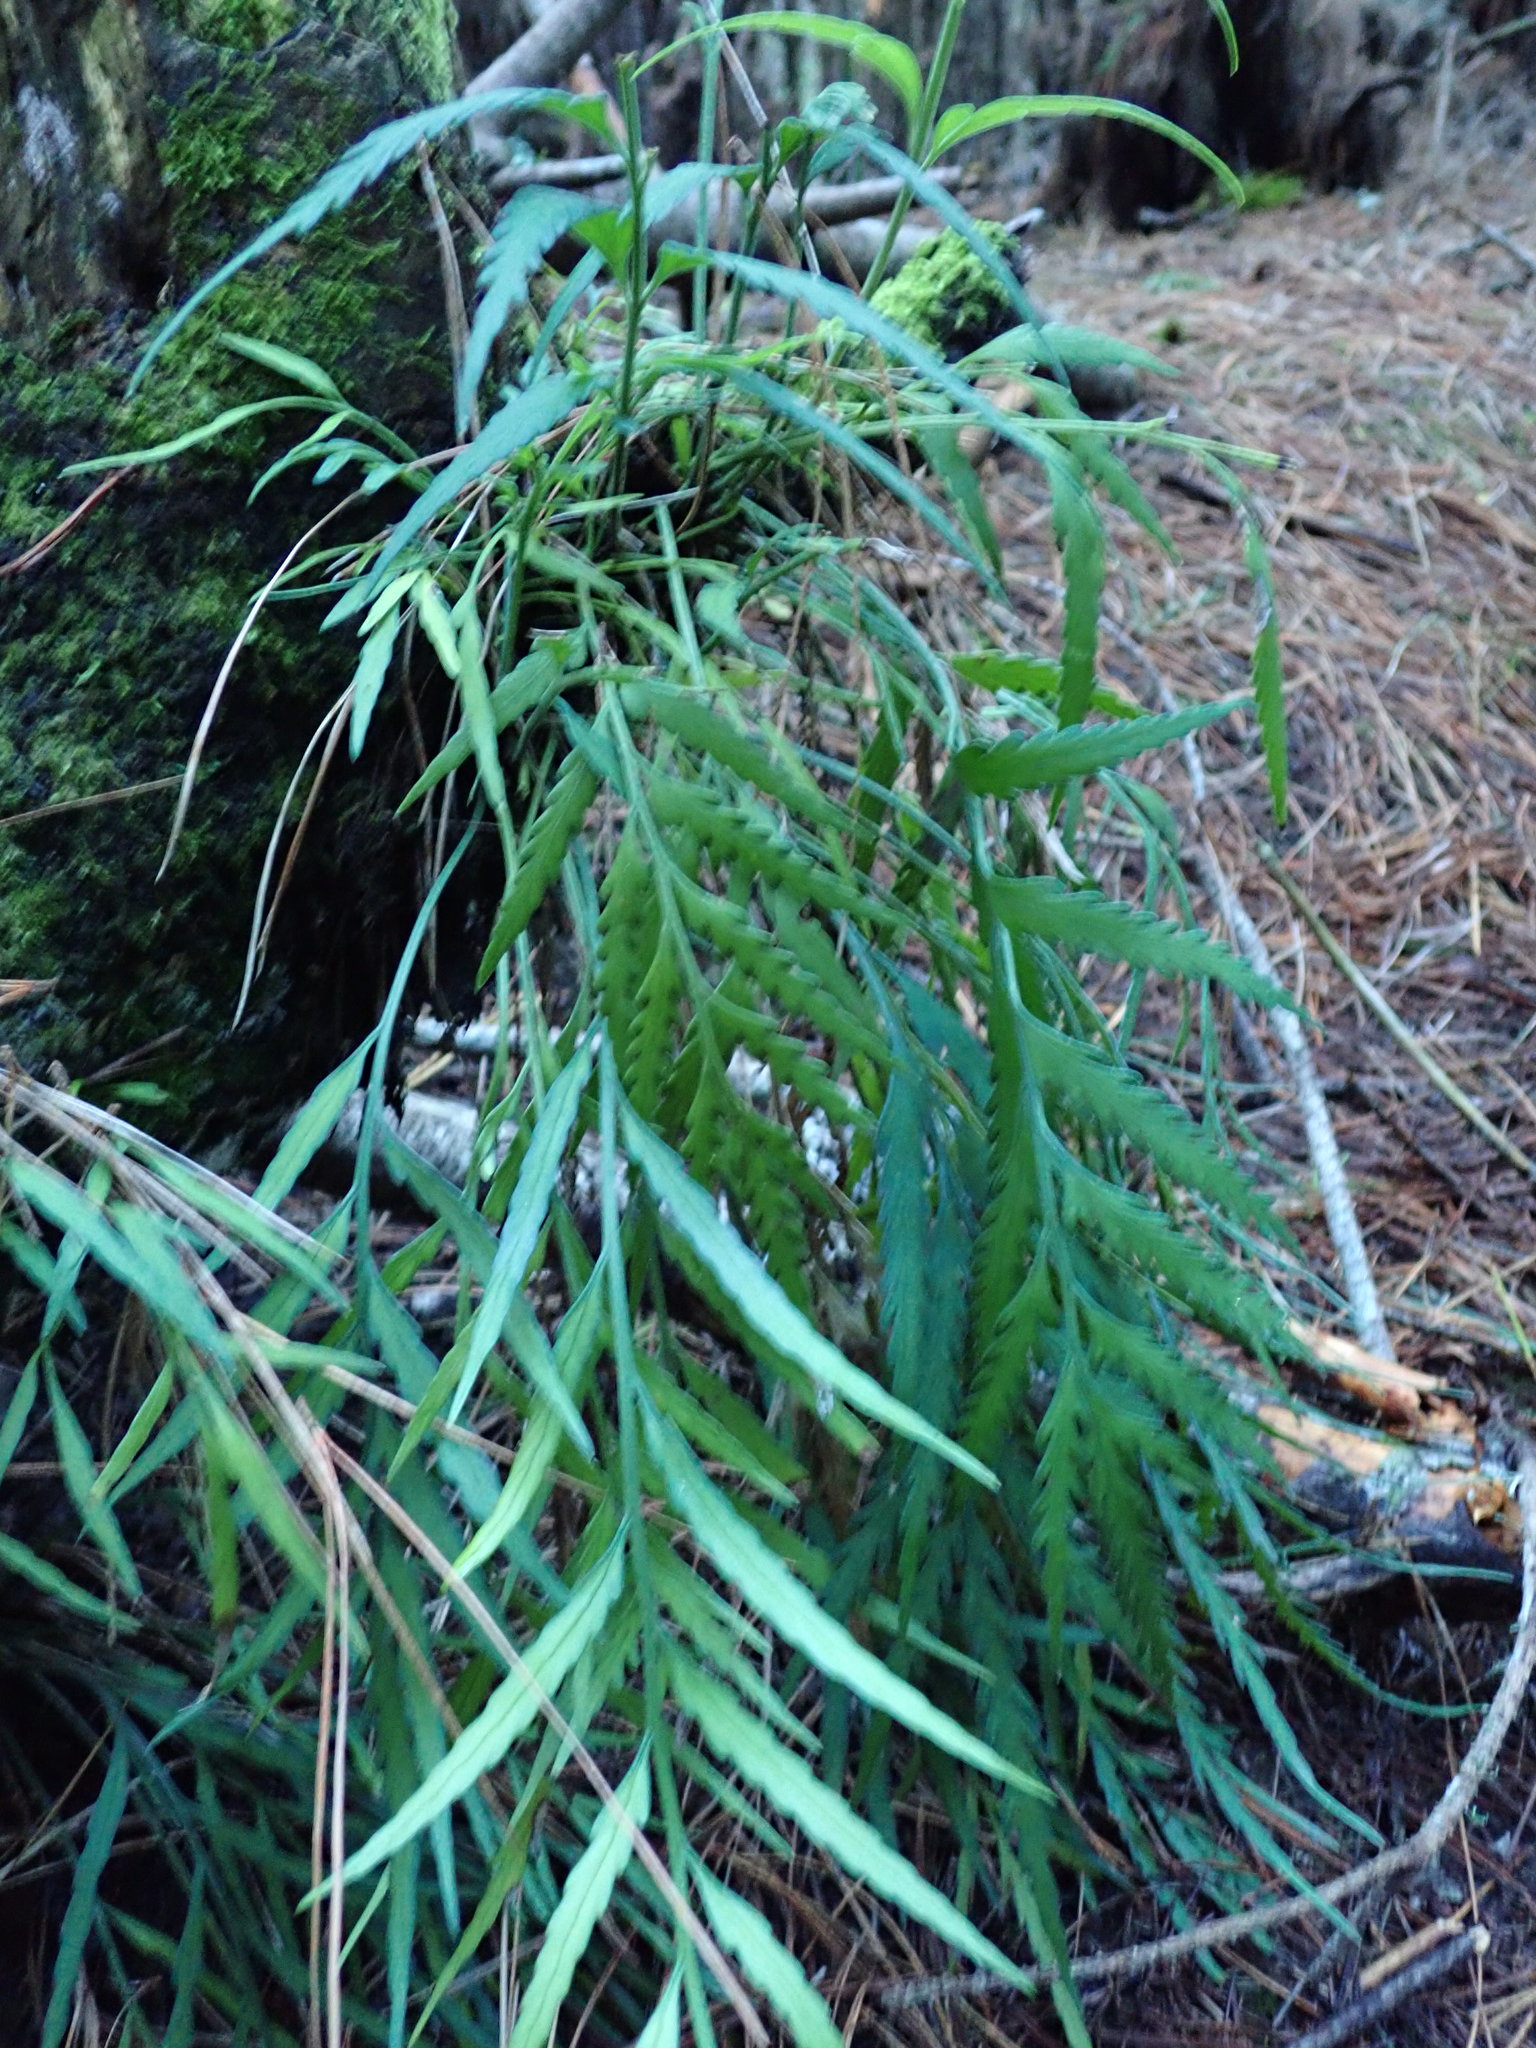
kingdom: Plantae
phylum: Tracheophyta
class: Polypodiopsida
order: Polypodiales
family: Aspleniaceae
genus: Asplenium
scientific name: Asplenium flaccidum
